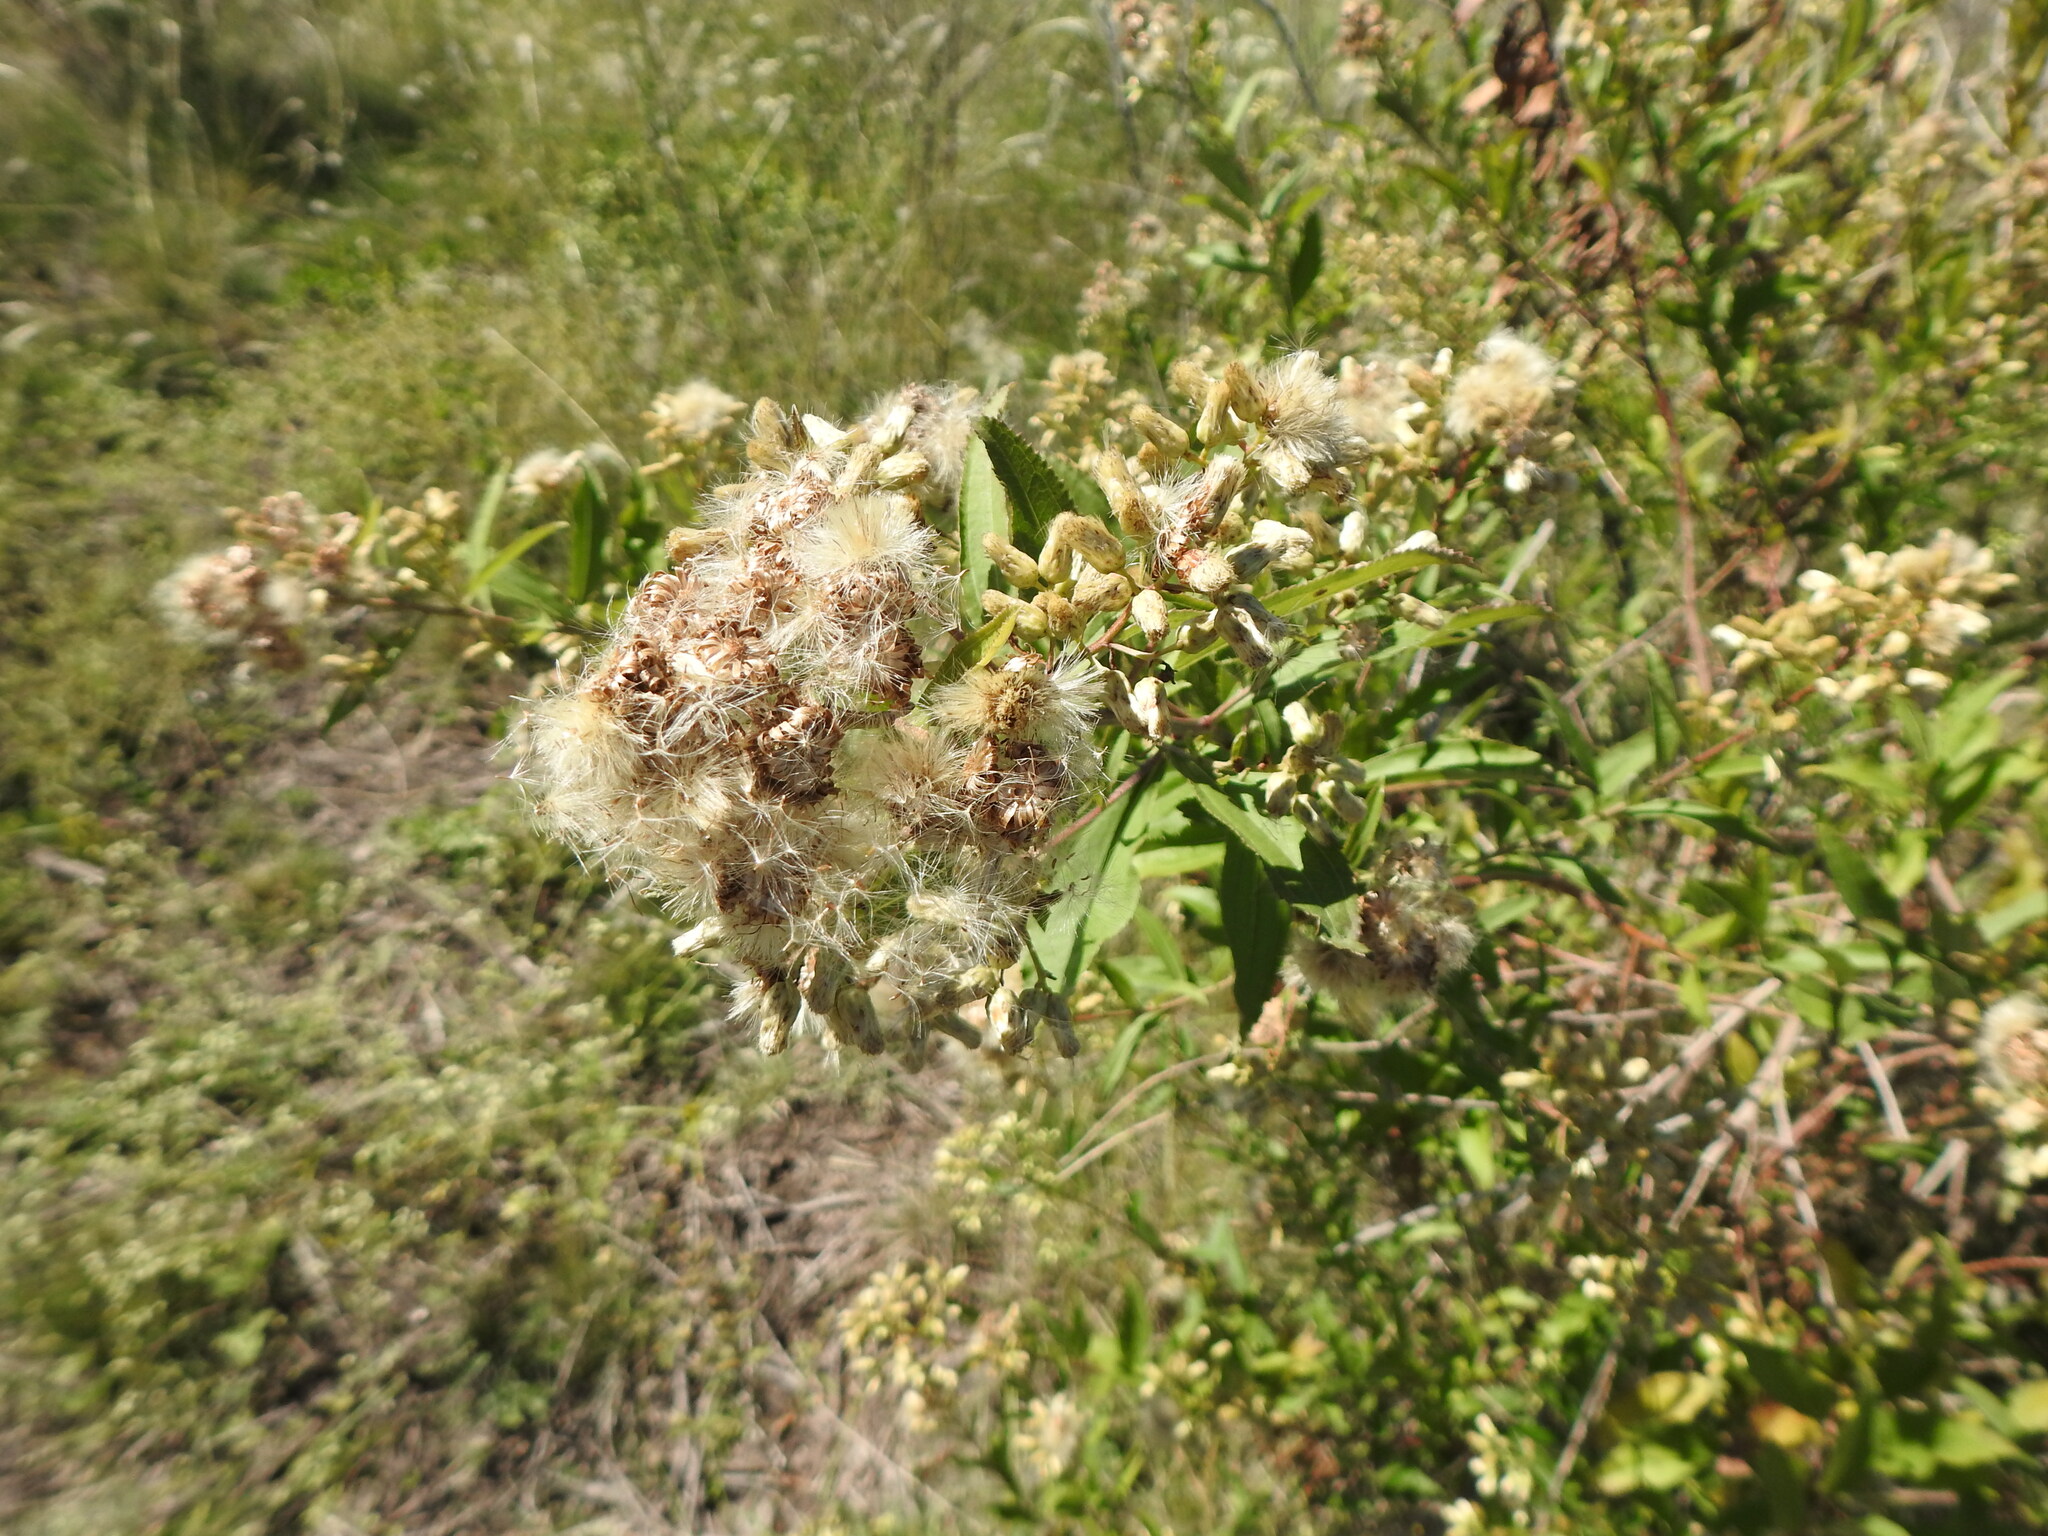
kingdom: Plantae
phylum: Tracheophyta
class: Magnoliopsida
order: Asterales
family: Asteraceae
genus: Baccharis
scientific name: Baccharis punctulata
